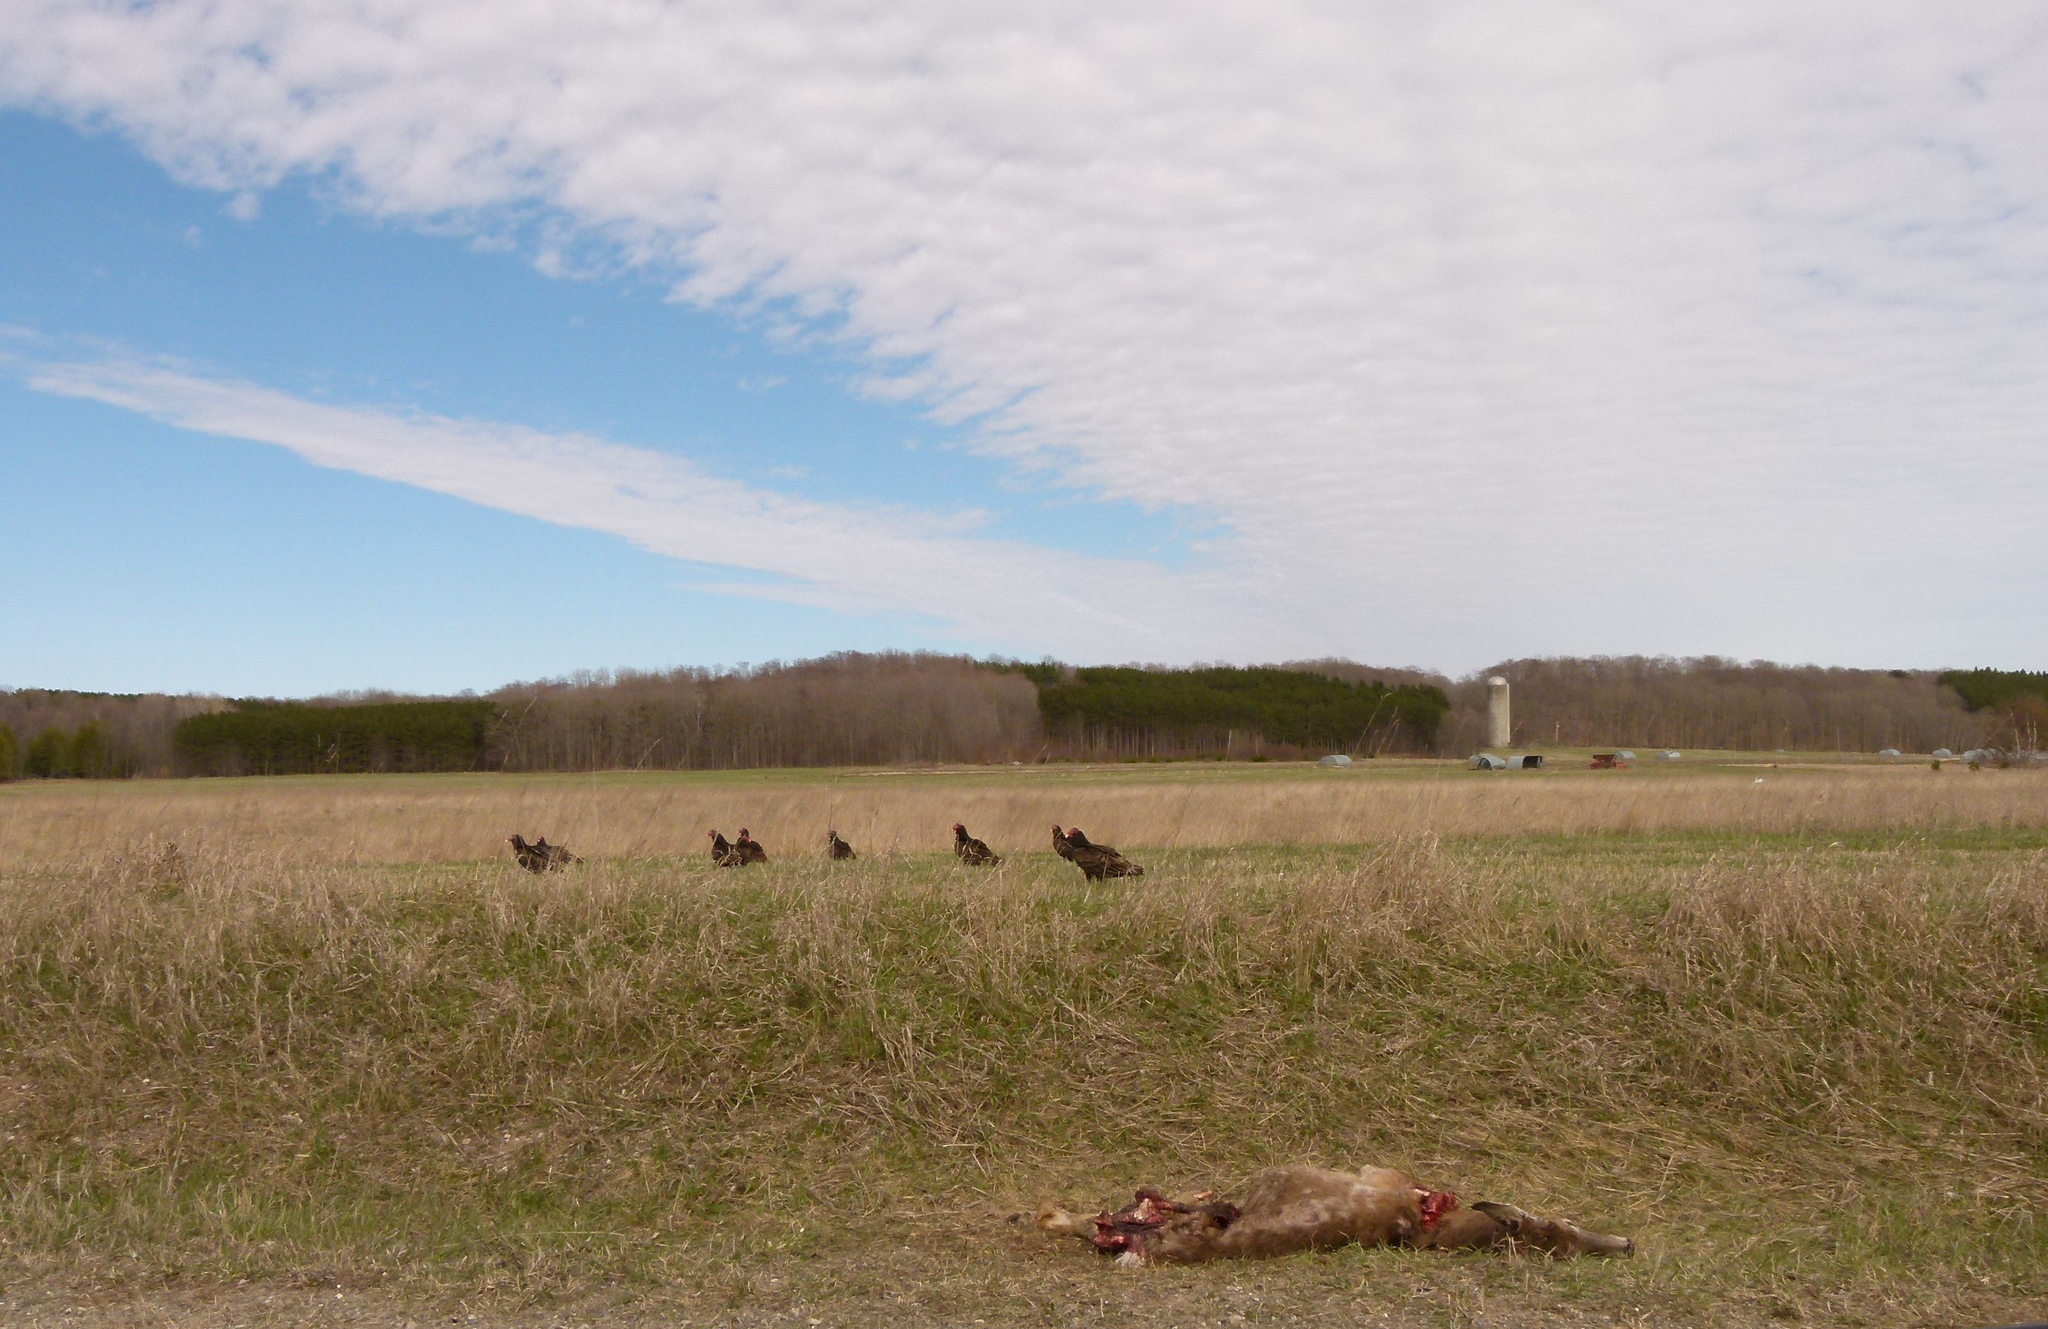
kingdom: Animalia
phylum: Chordata
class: Aves
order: Accipitriformes
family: Cathartidae
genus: Cathartes
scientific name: Cathartes aura
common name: Turkey vulture
